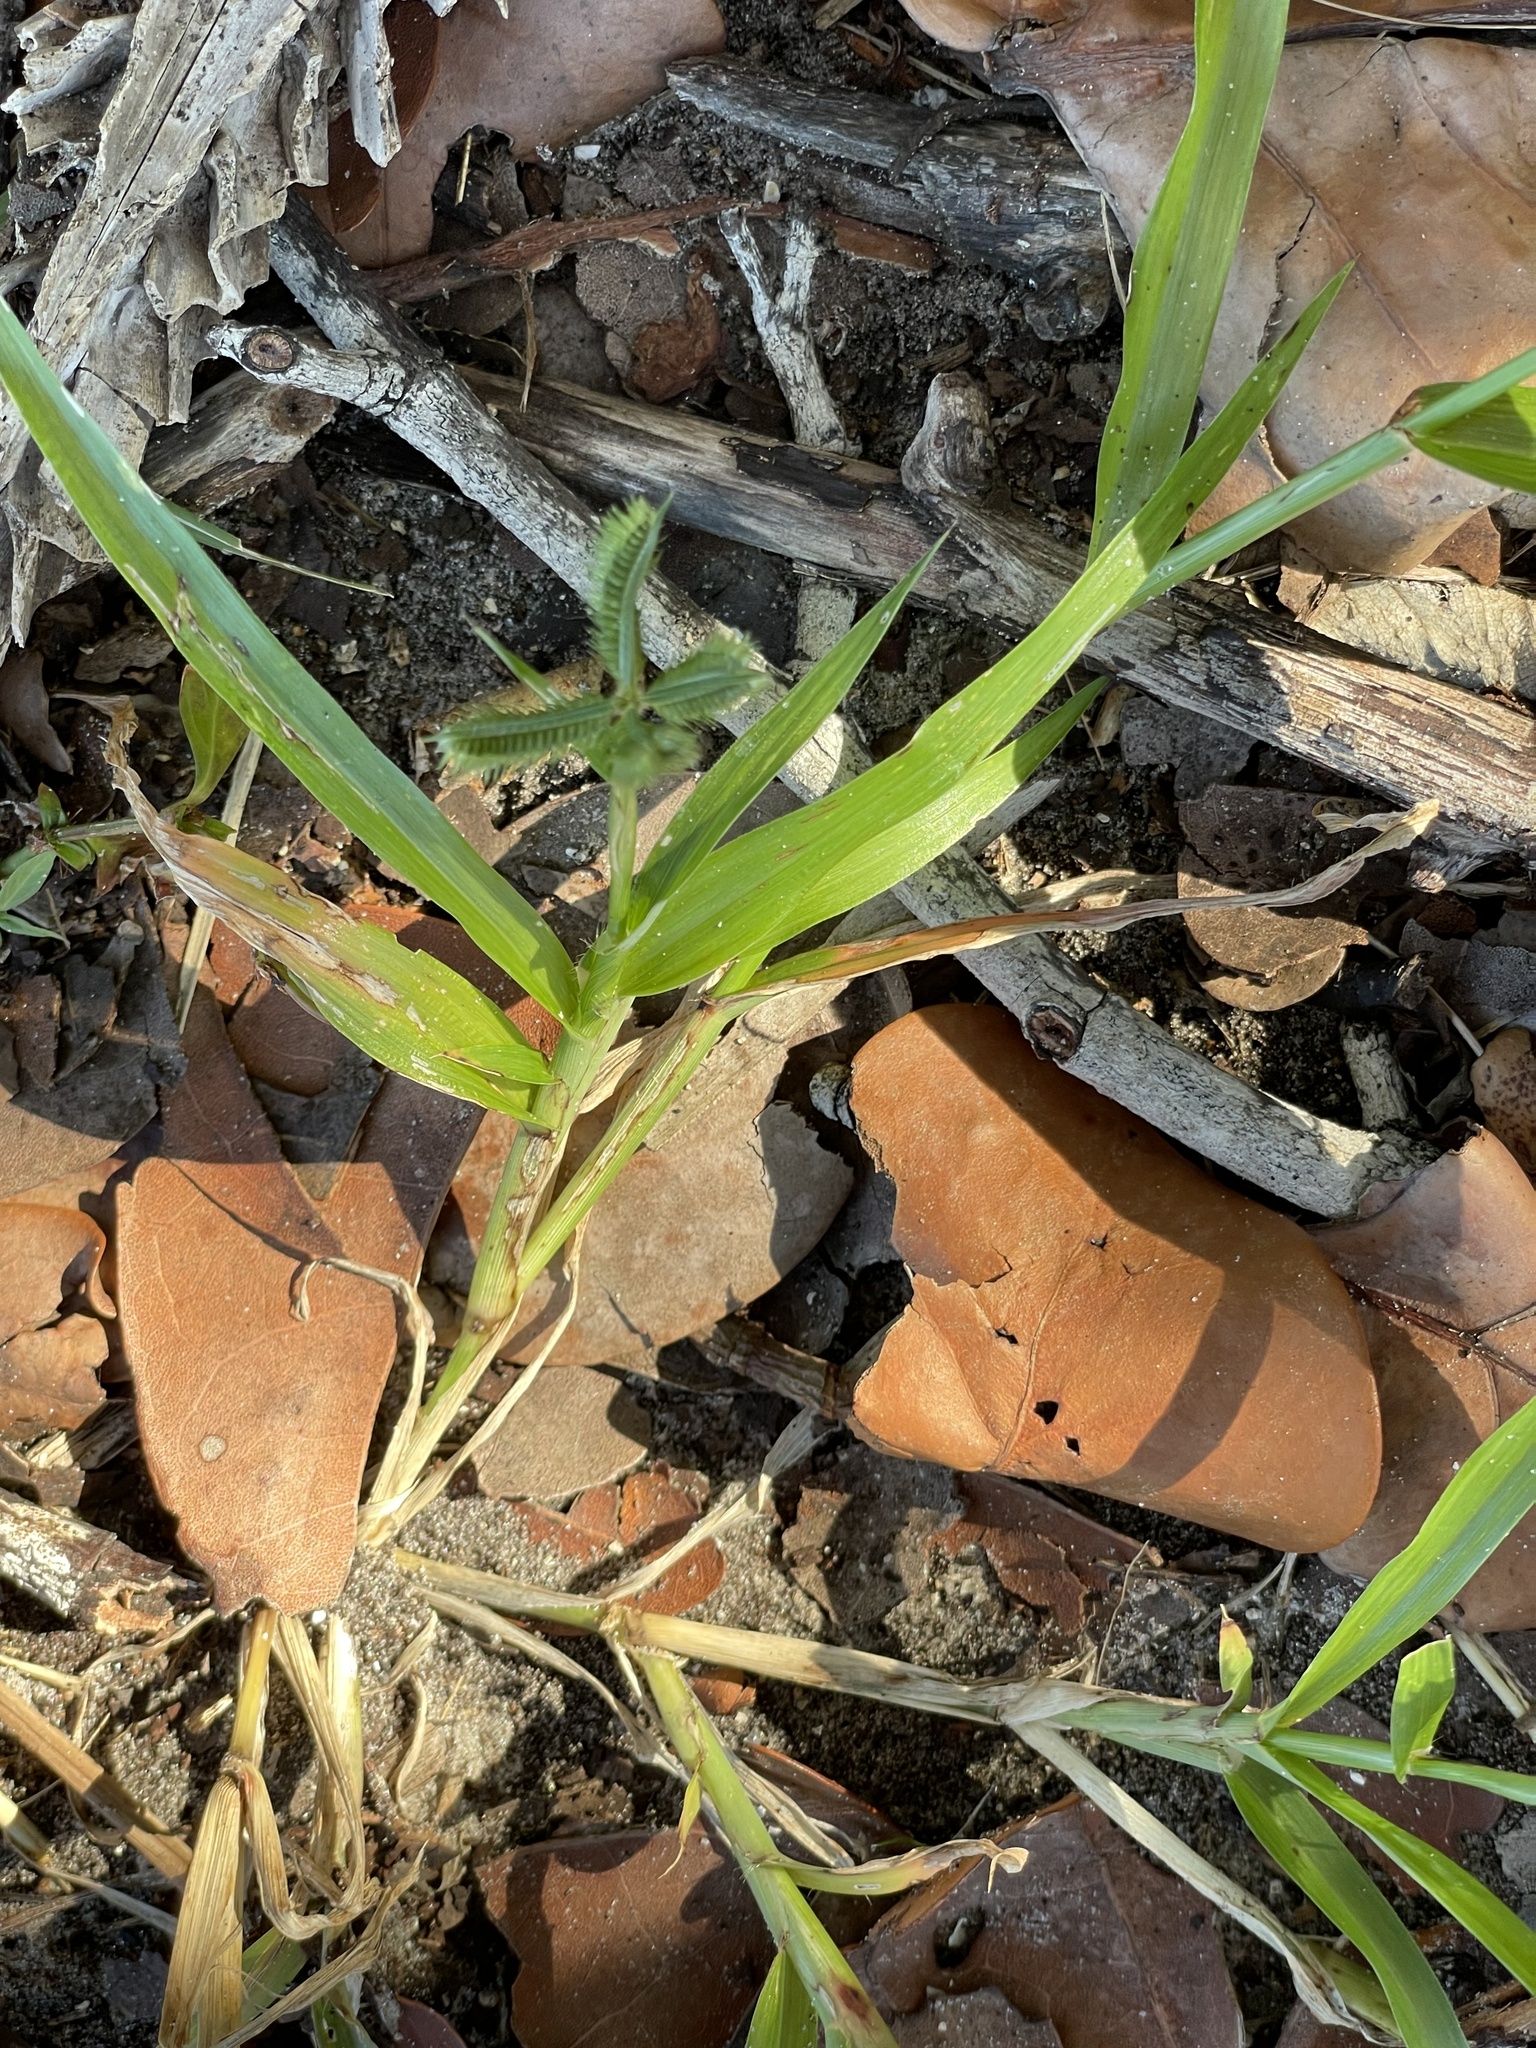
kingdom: Plantae
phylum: Tracheophyta
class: Liliopsida
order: Poales
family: Poaceae
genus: Dactyloctenium
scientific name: Dactyloctenium aegyptium
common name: Egyptian grass
